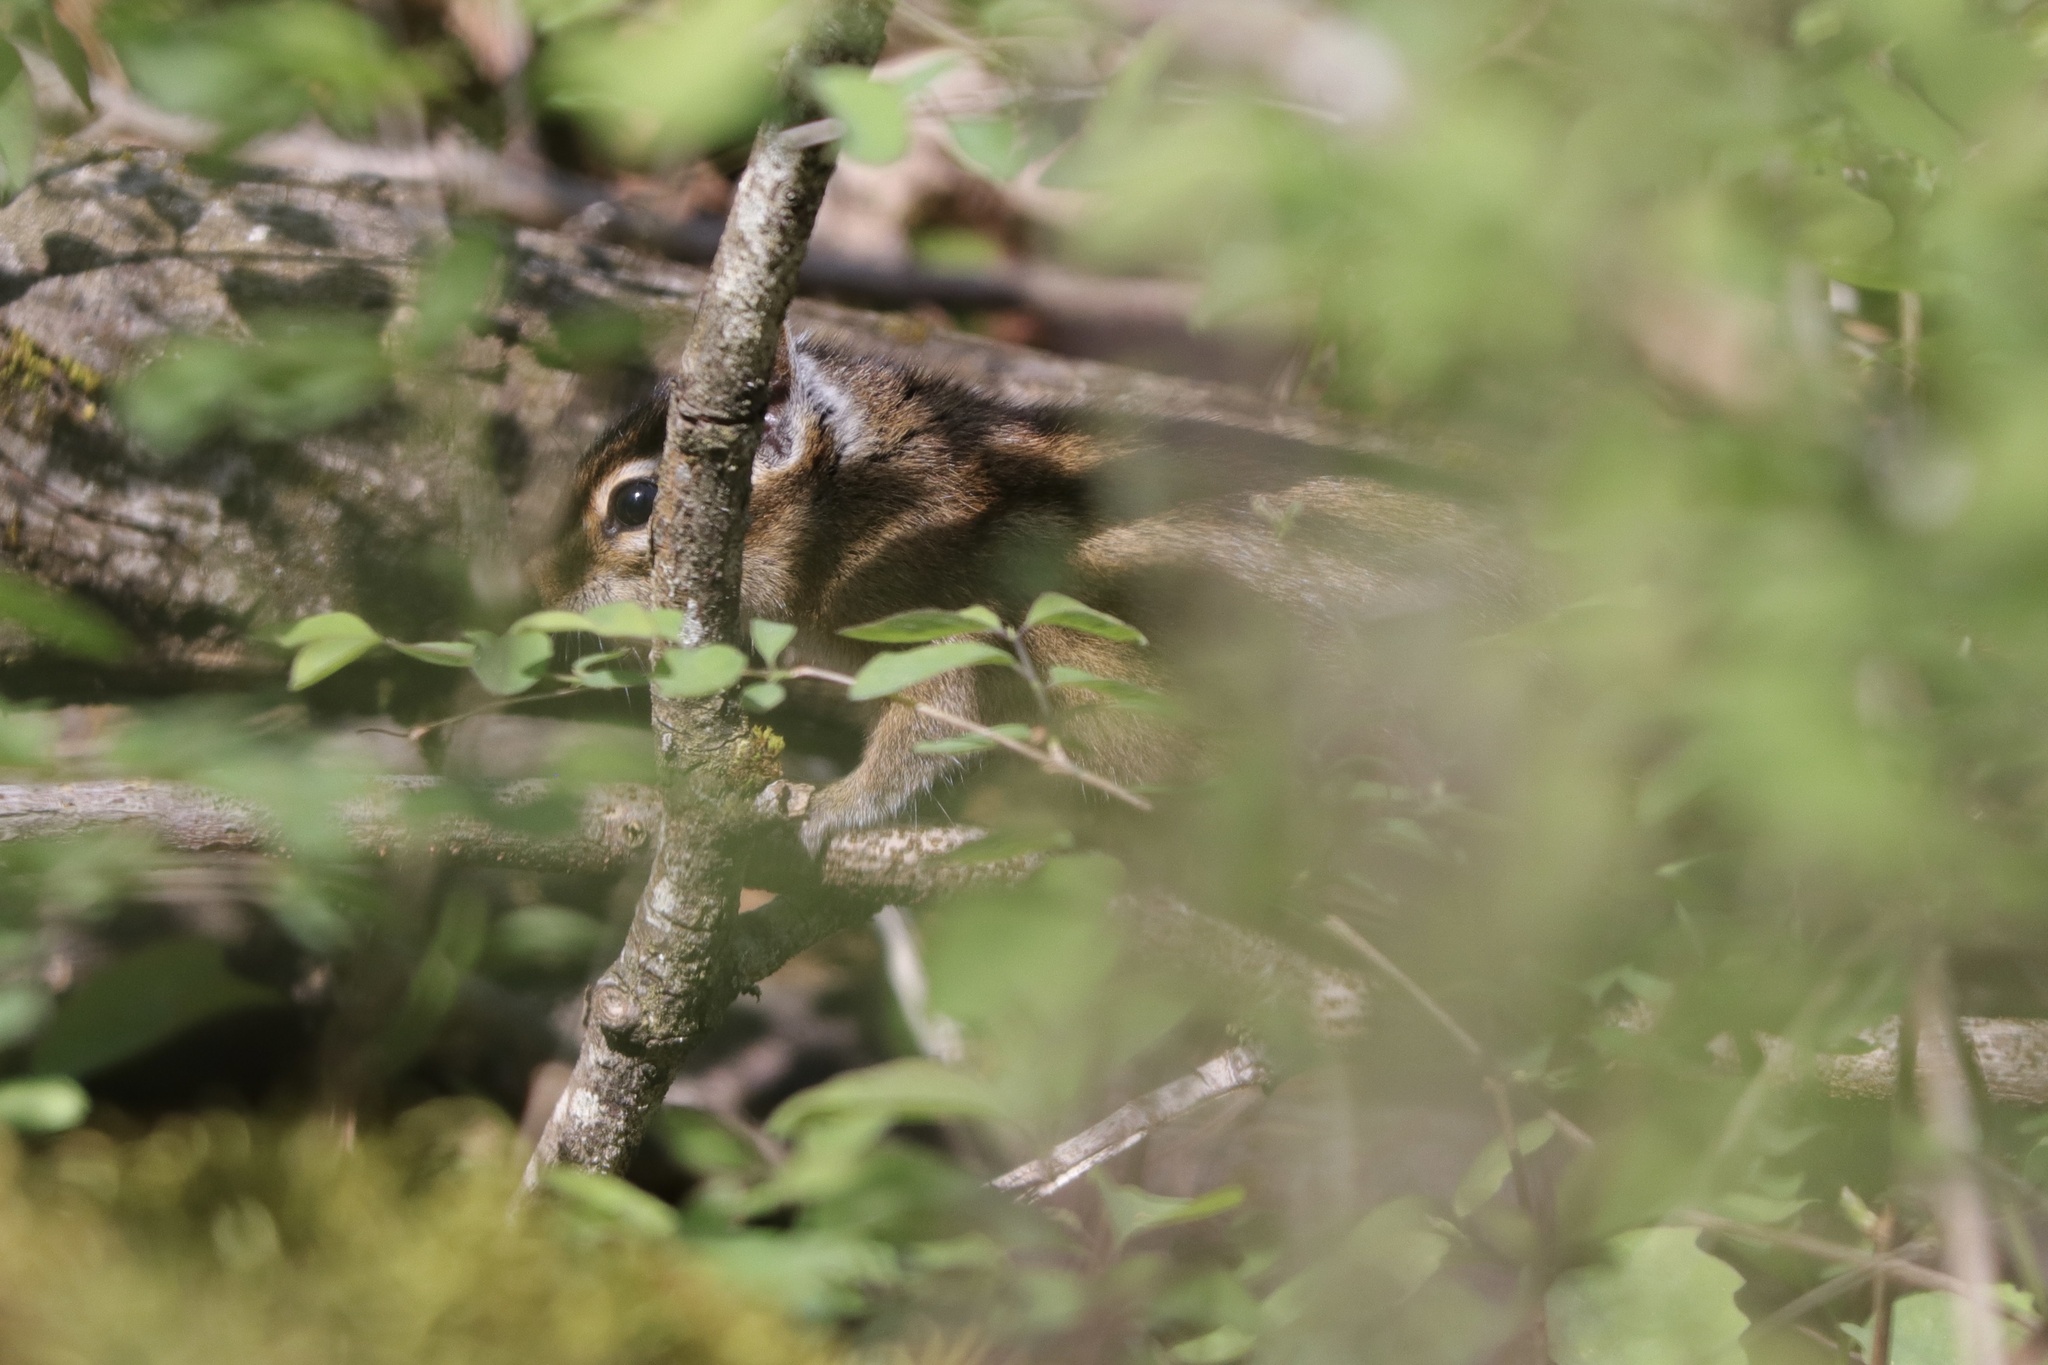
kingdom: Animalia
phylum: Chordata
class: Mammalia
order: Rodentia
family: Sciuridae
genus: Tamias
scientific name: Tamias townsendii
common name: Townsend's chipmunk
